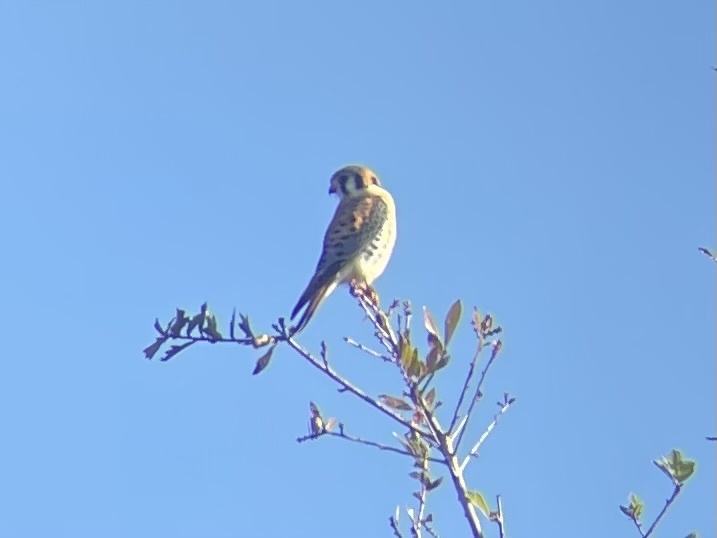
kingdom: Animalia
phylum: Chordata
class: Aves
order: Falconiformes
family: Falconidae
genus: Falco
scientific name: Falco sparverius
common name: American kestrel
